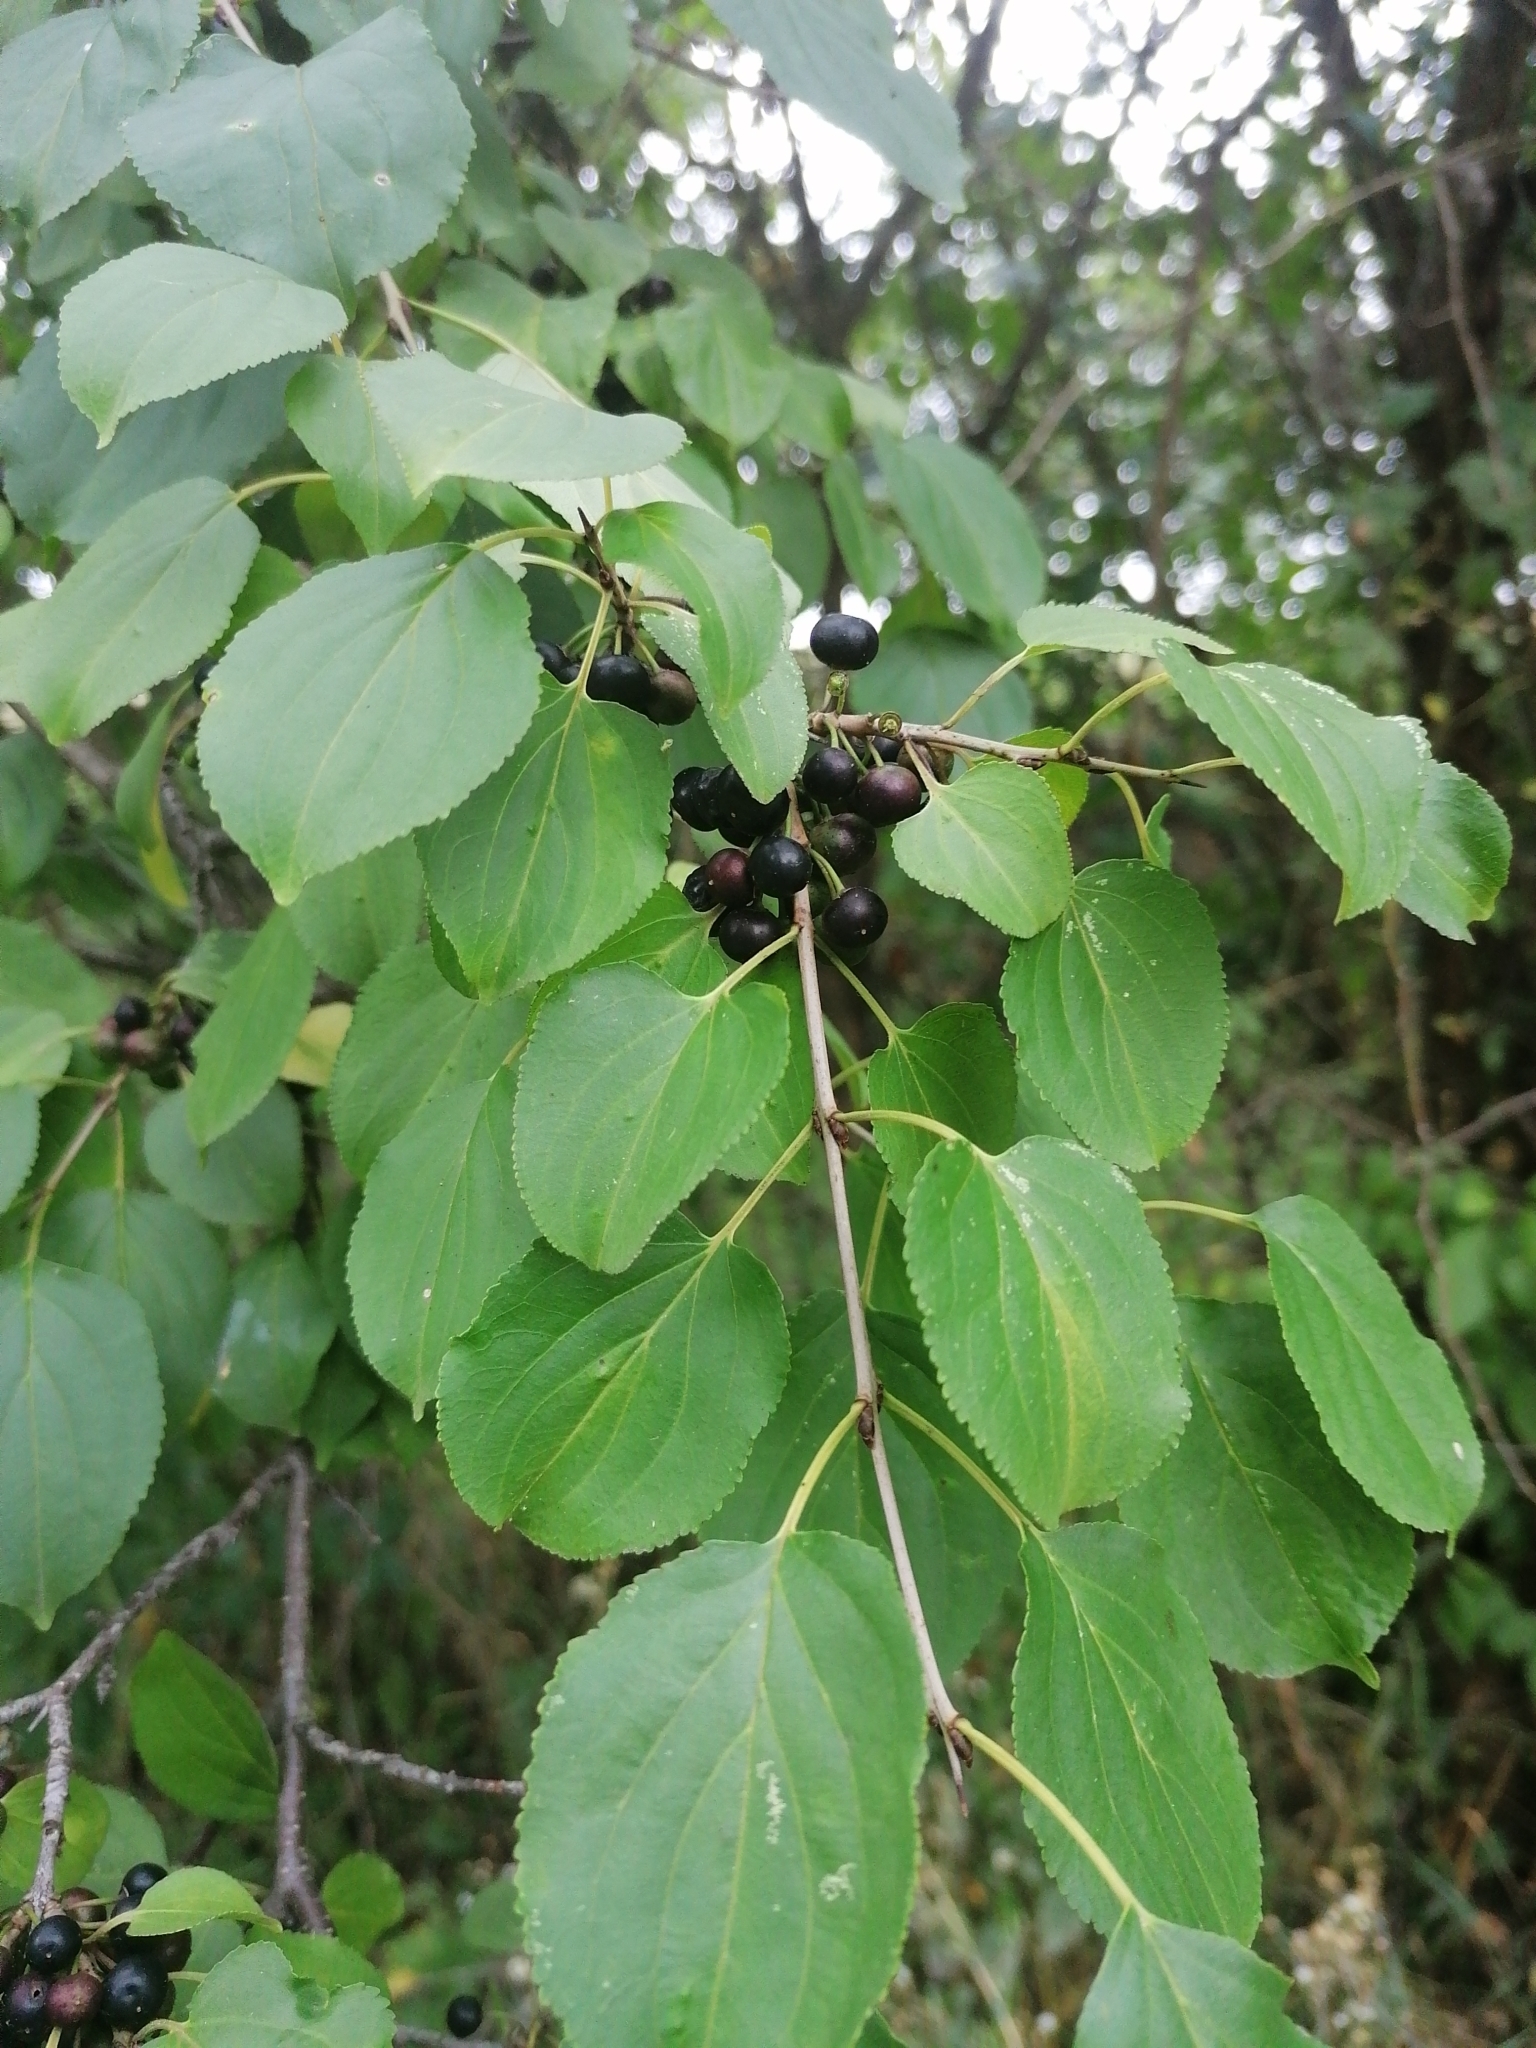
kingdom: Plantae
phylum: Tracheophyta
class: Magnoliopsida
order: Rosales
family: Rhamnaceae
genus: Rhamnus
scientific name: Rhamnus cathartica
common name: Common buckthorn
